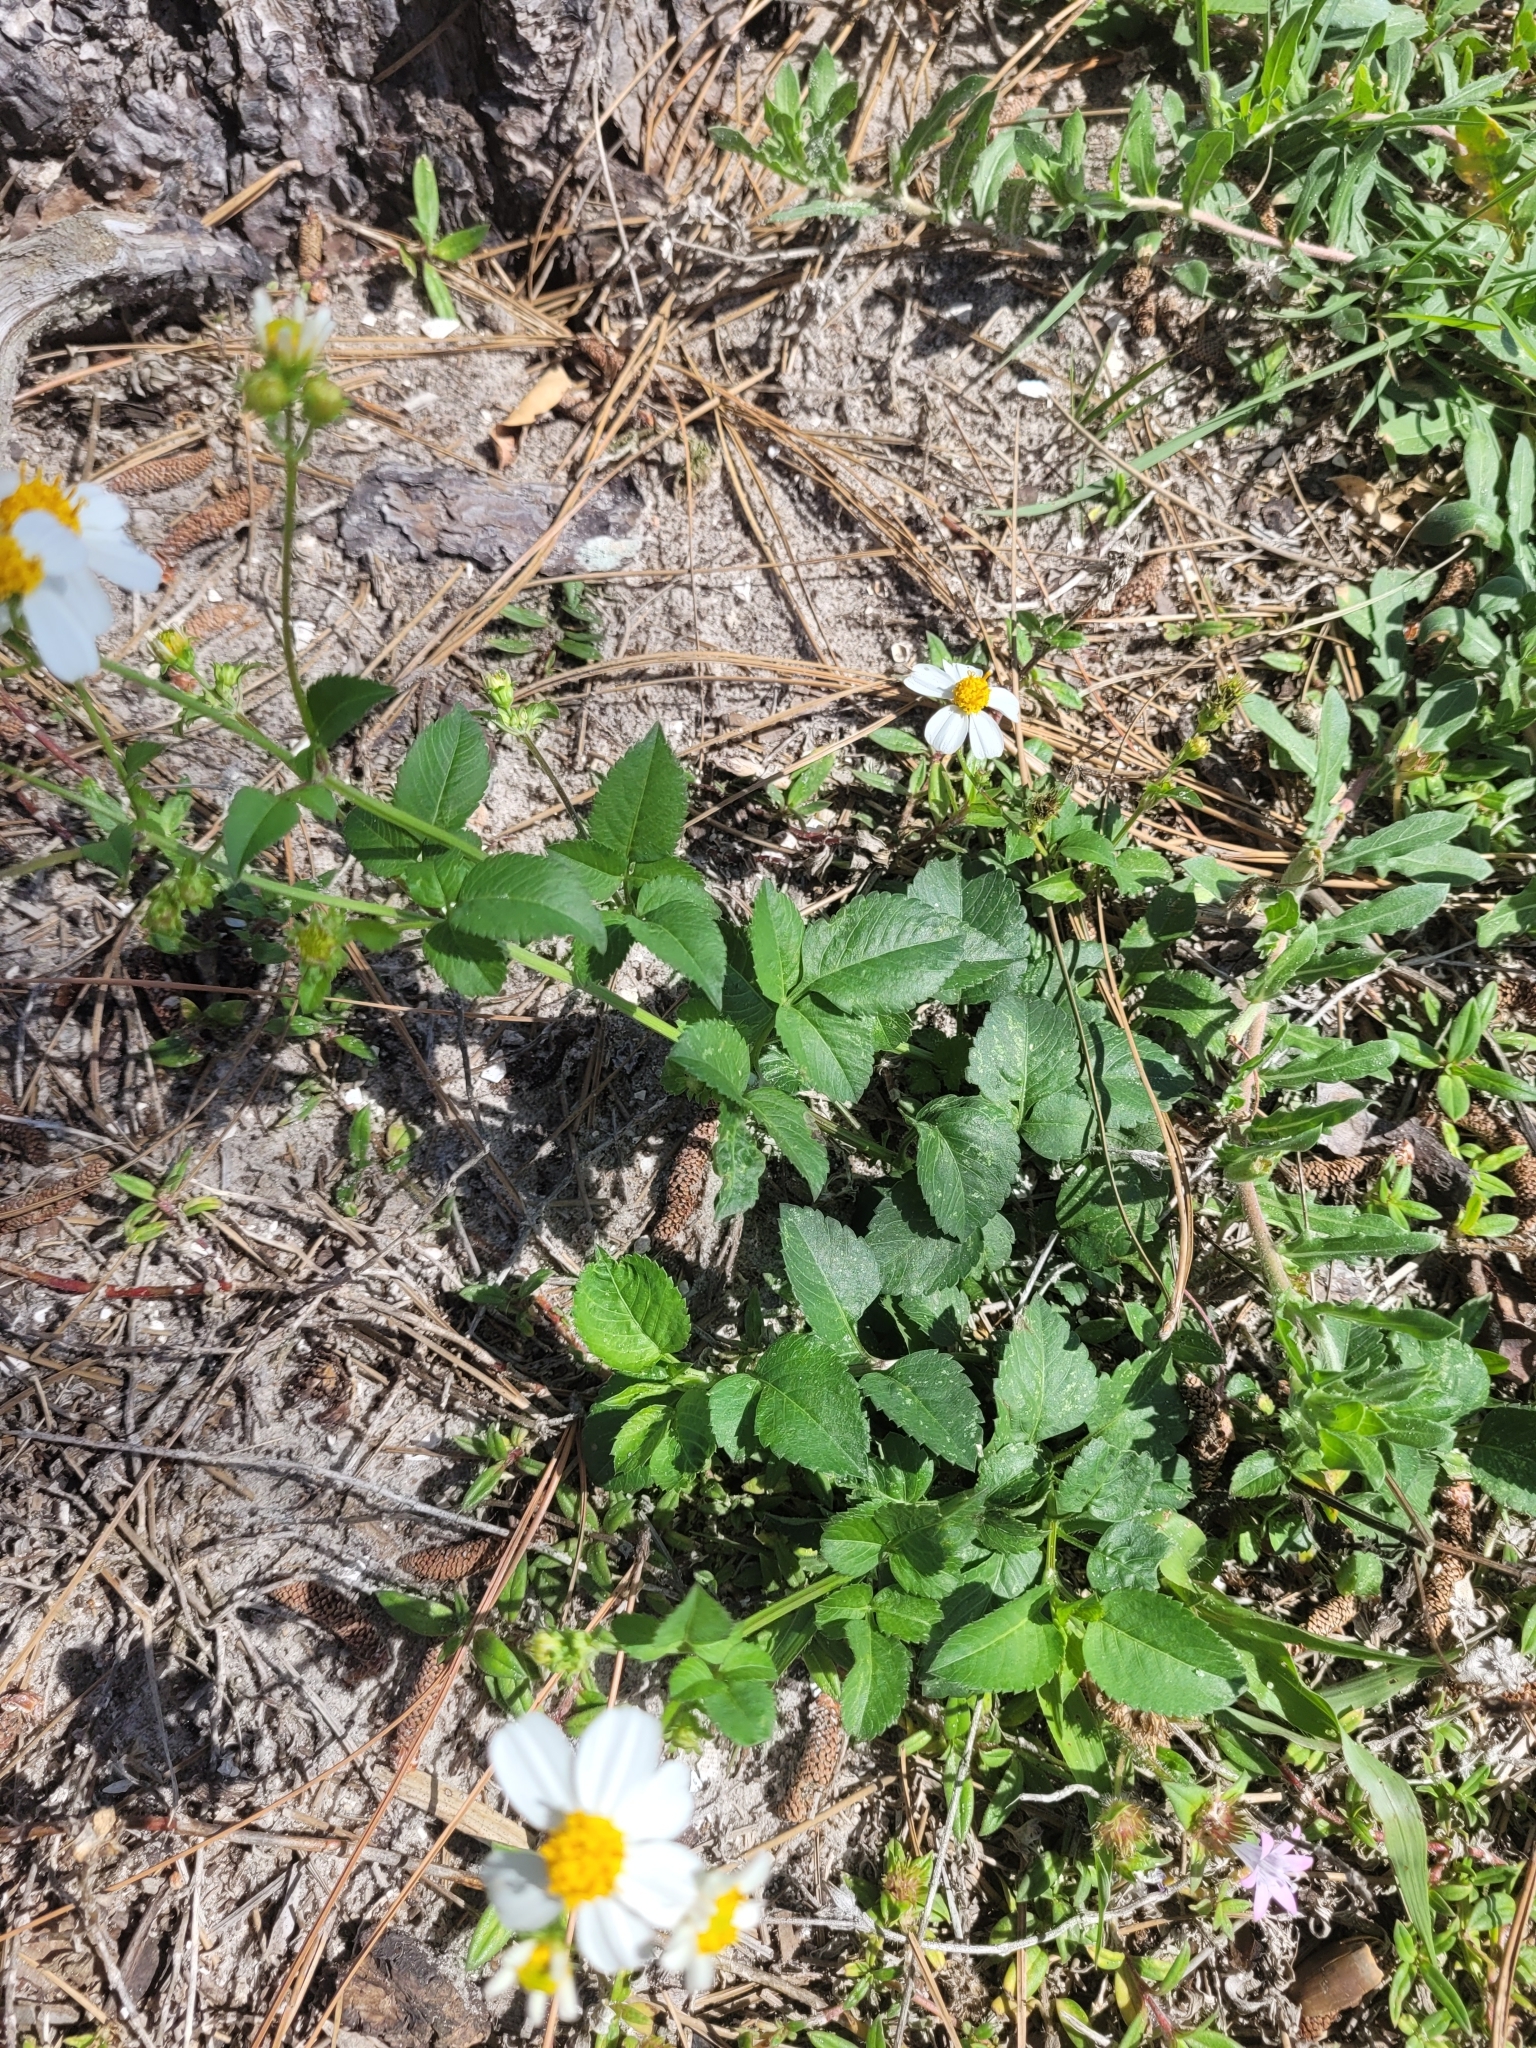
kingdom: Plantae
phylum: Tracheophyta
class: Magnoliopsida
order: Asterales
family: Asteraceae
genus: Bidens
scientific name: Bidens alba
